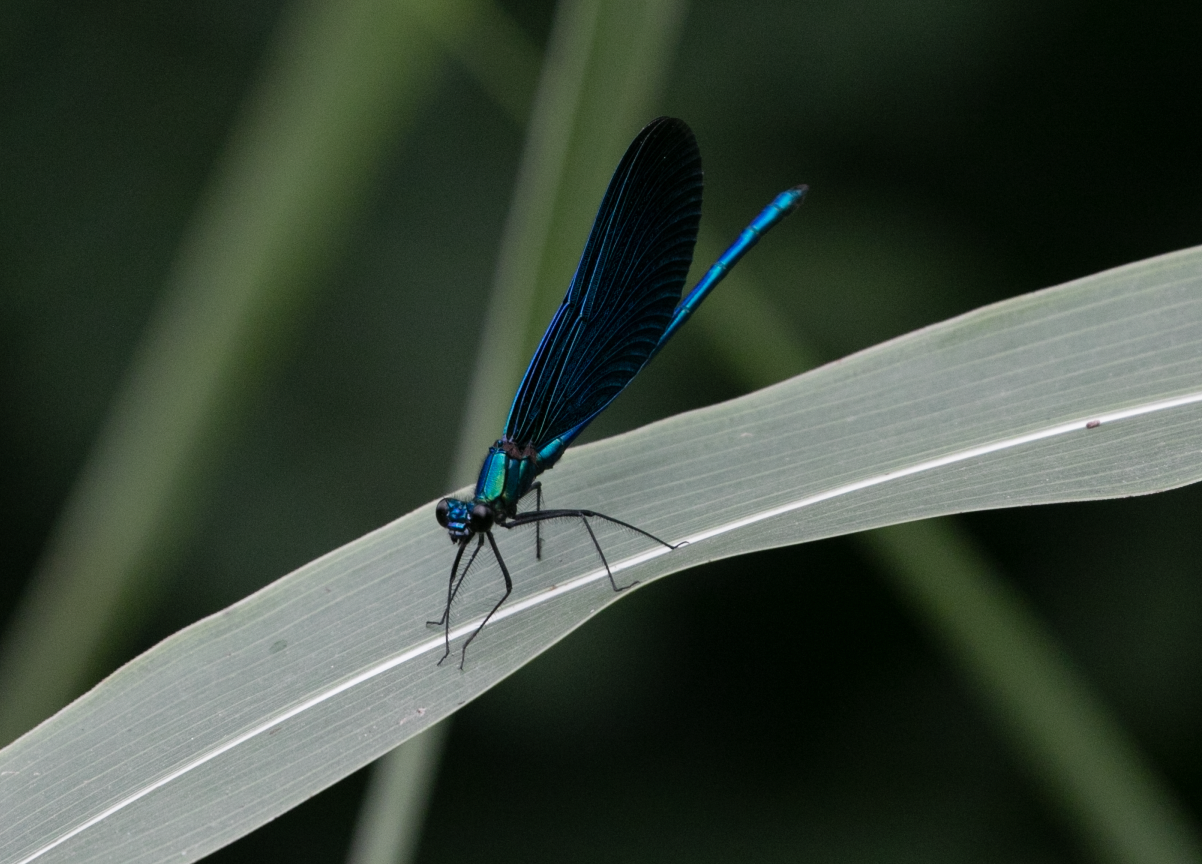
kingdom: Animalia
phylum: Arthropoda
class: Insecta
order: Odonata
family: Calopterygidae
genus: Calopteryx
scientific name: Calopteryx virgo
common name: Beautiful demoiselle
